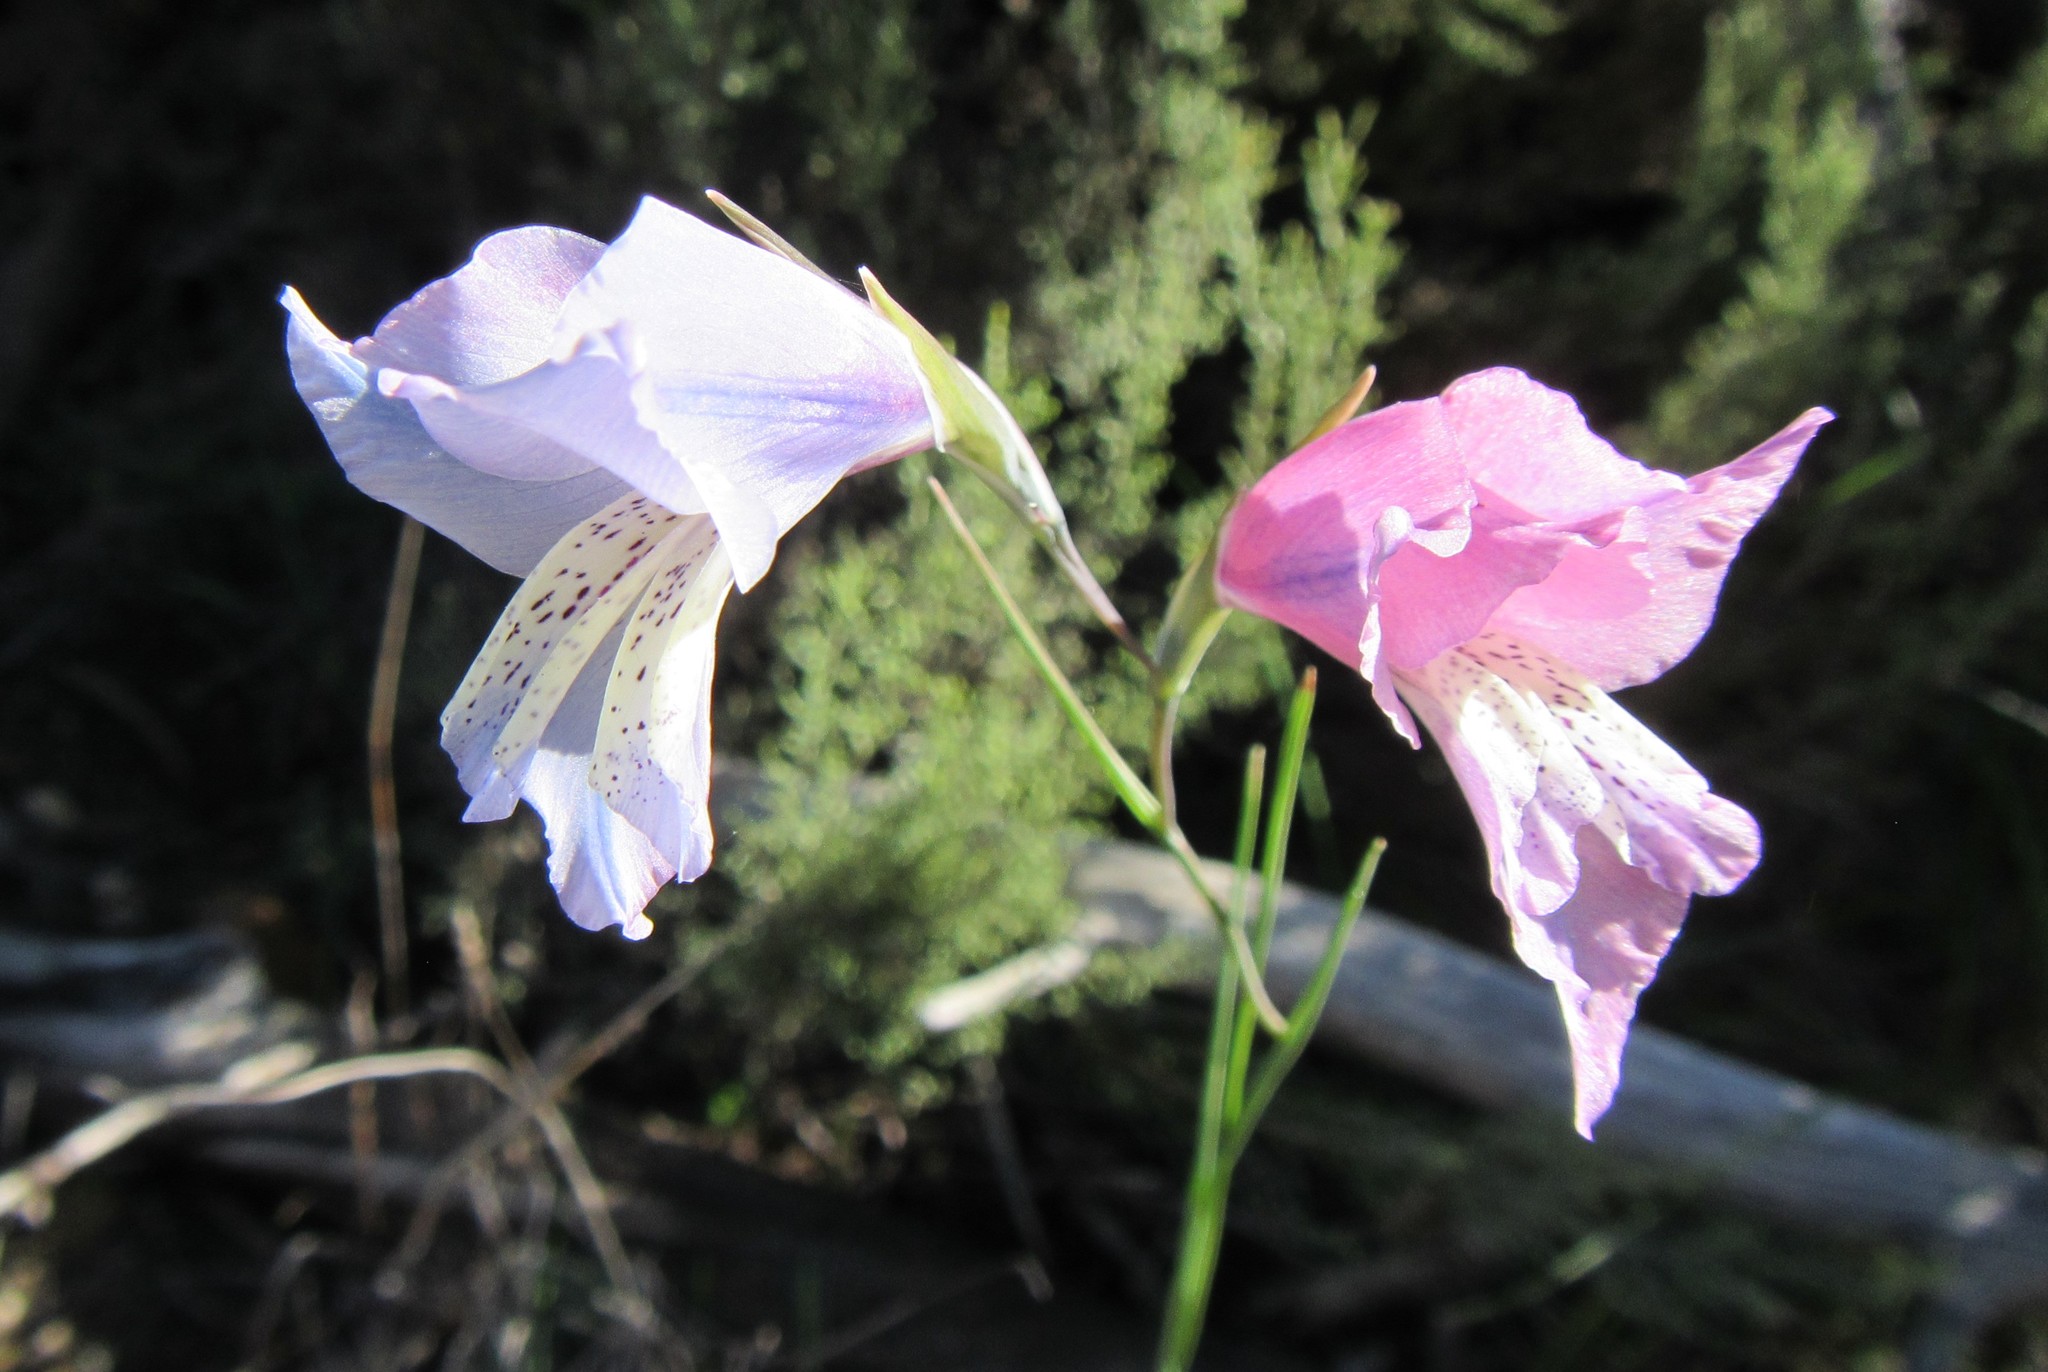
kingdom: Plantae
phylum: Tracheophyta
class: Liliopsida
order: Asparagales
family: Iridaceae
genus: Gladiolus
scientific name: Gladiolus gracilis
